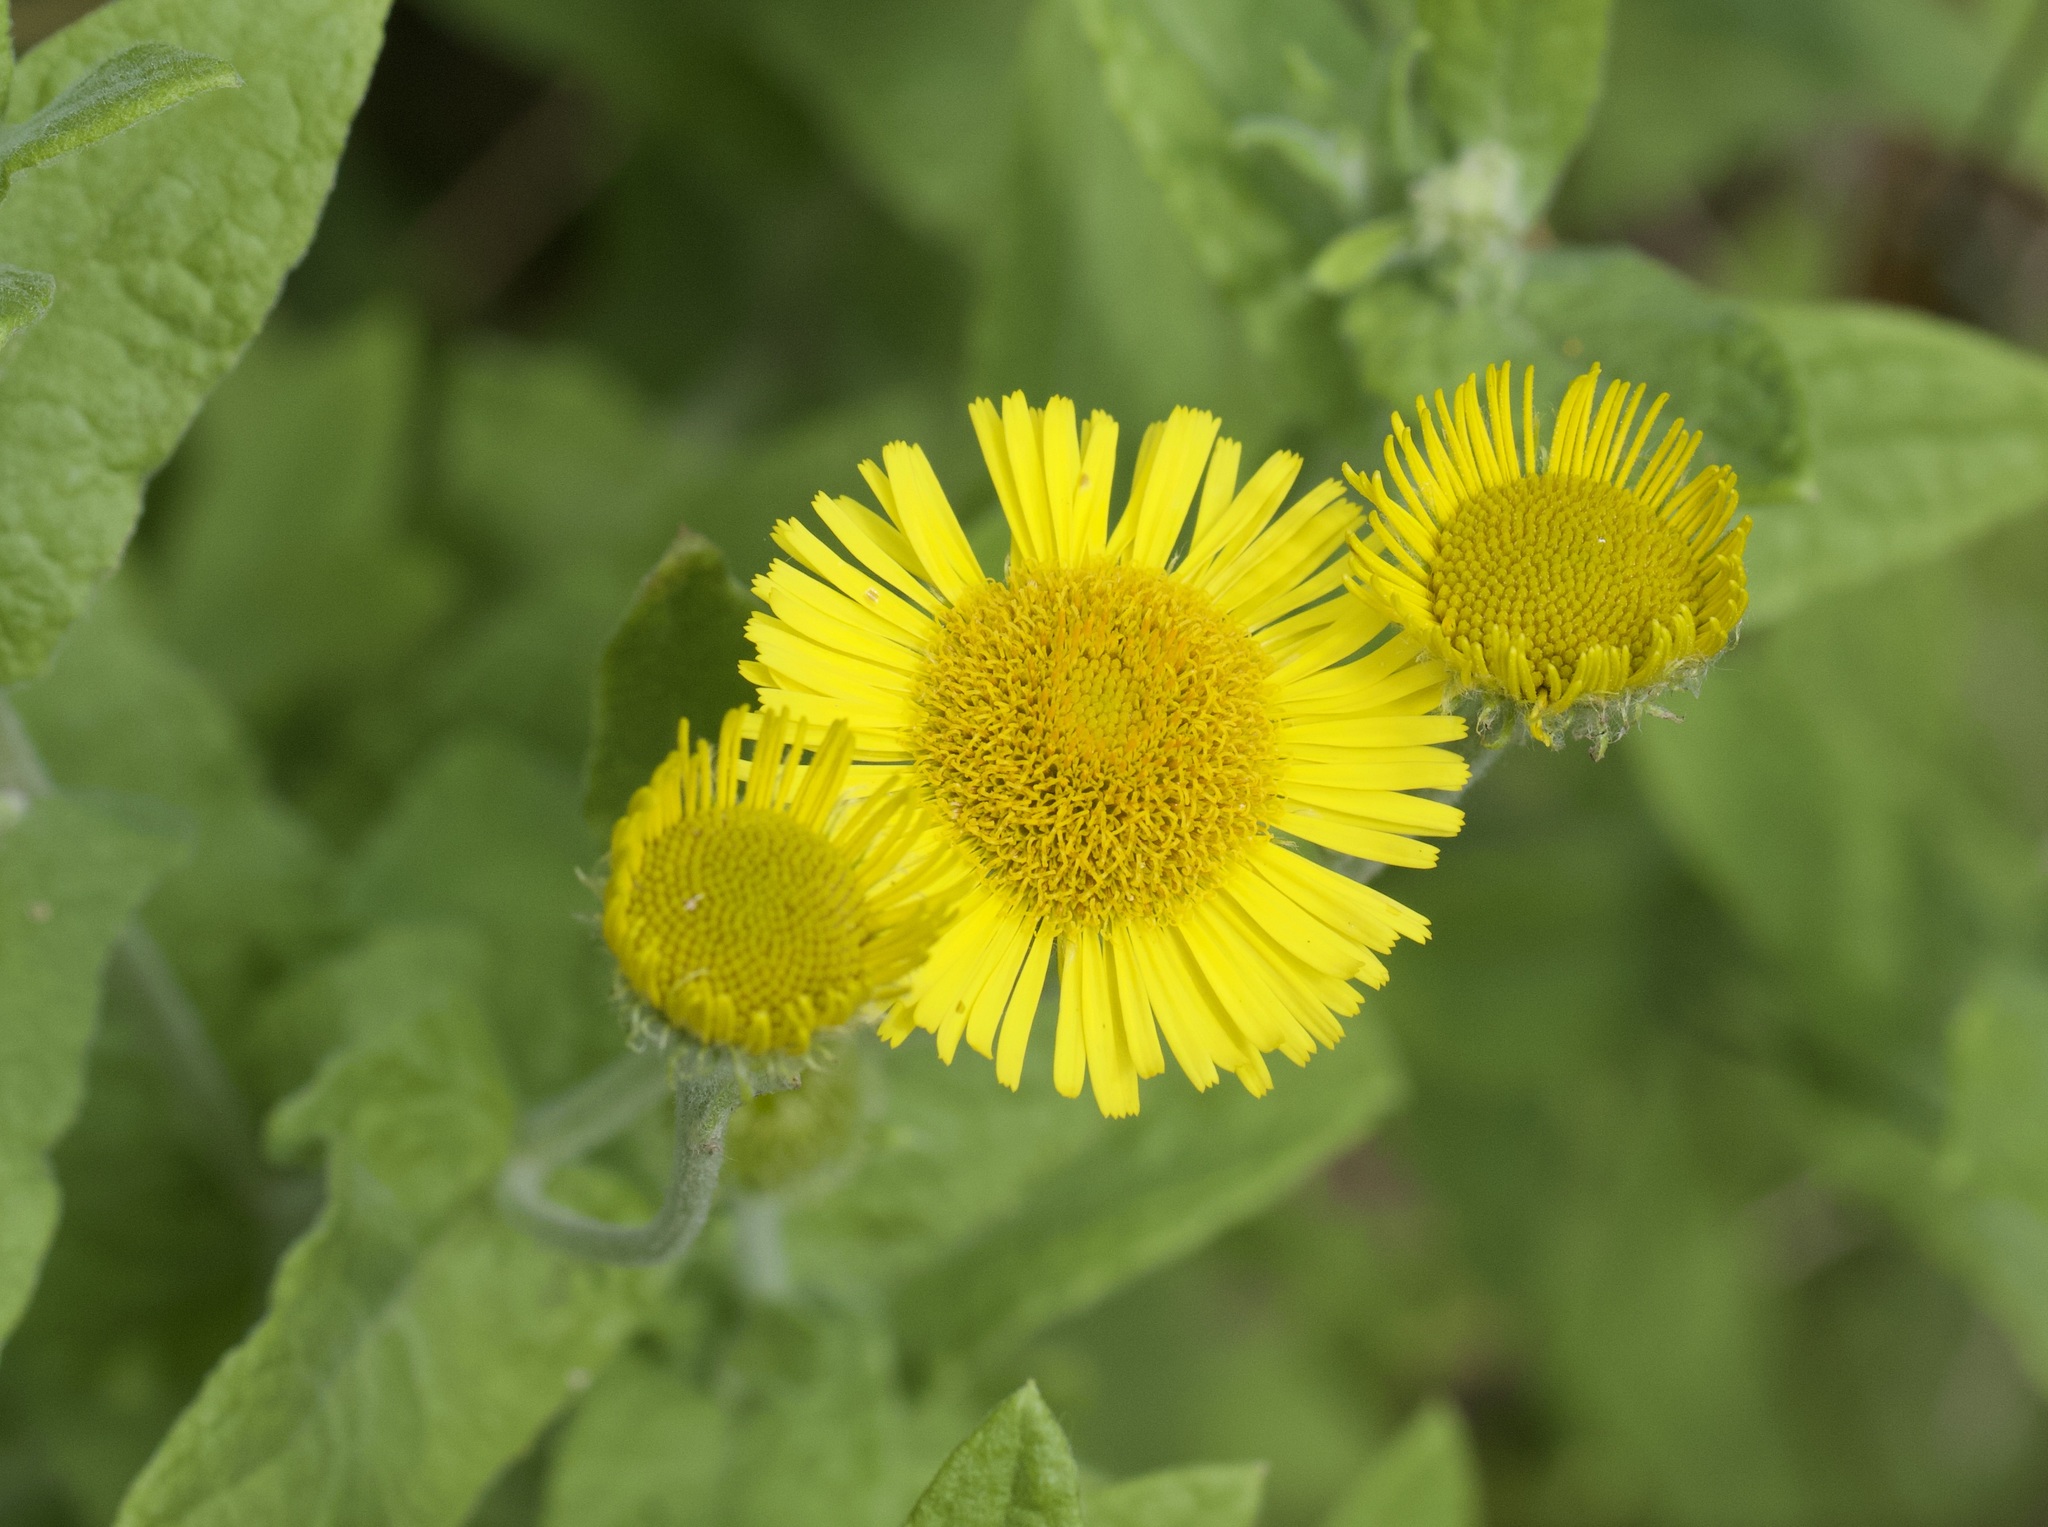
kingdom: Plantae
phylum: Tracheophyta
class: Magnoliopsida
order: Asterales
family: Asteraceae
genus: Pulicaria
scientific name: Pulicaria dysenterica
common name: Common fleabane
